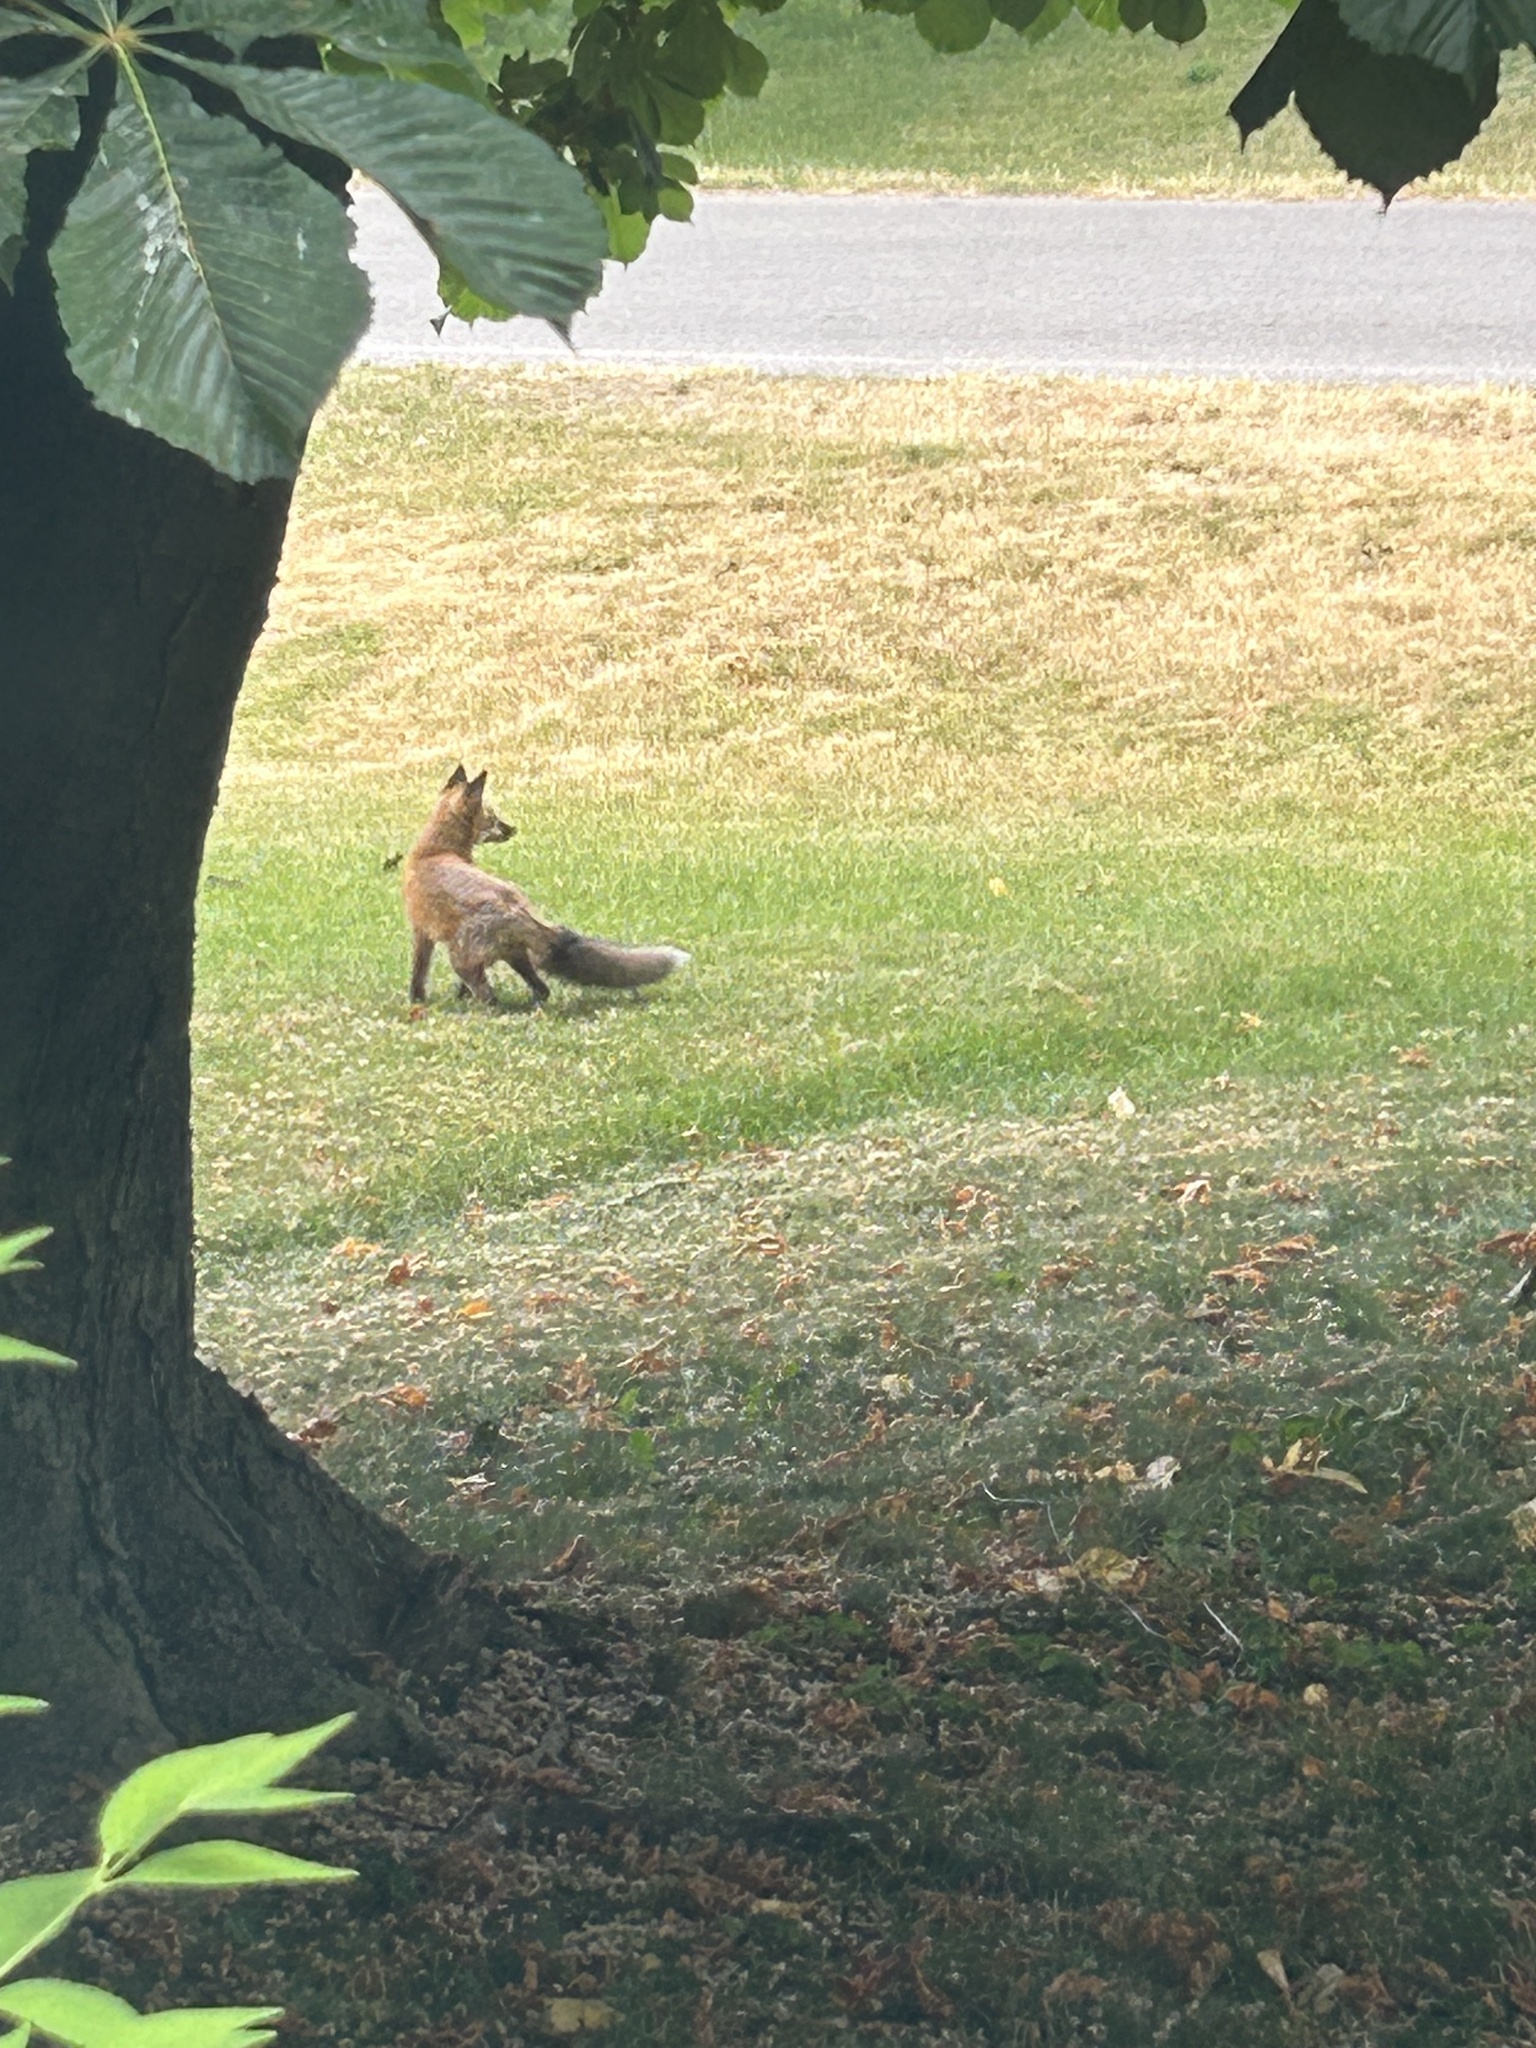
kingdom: Animalia
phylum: Chordata
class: Mammalia
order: Carnivora
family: Canidae
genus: Vulpes
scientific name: Vulpes vulpes
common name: Red fox
